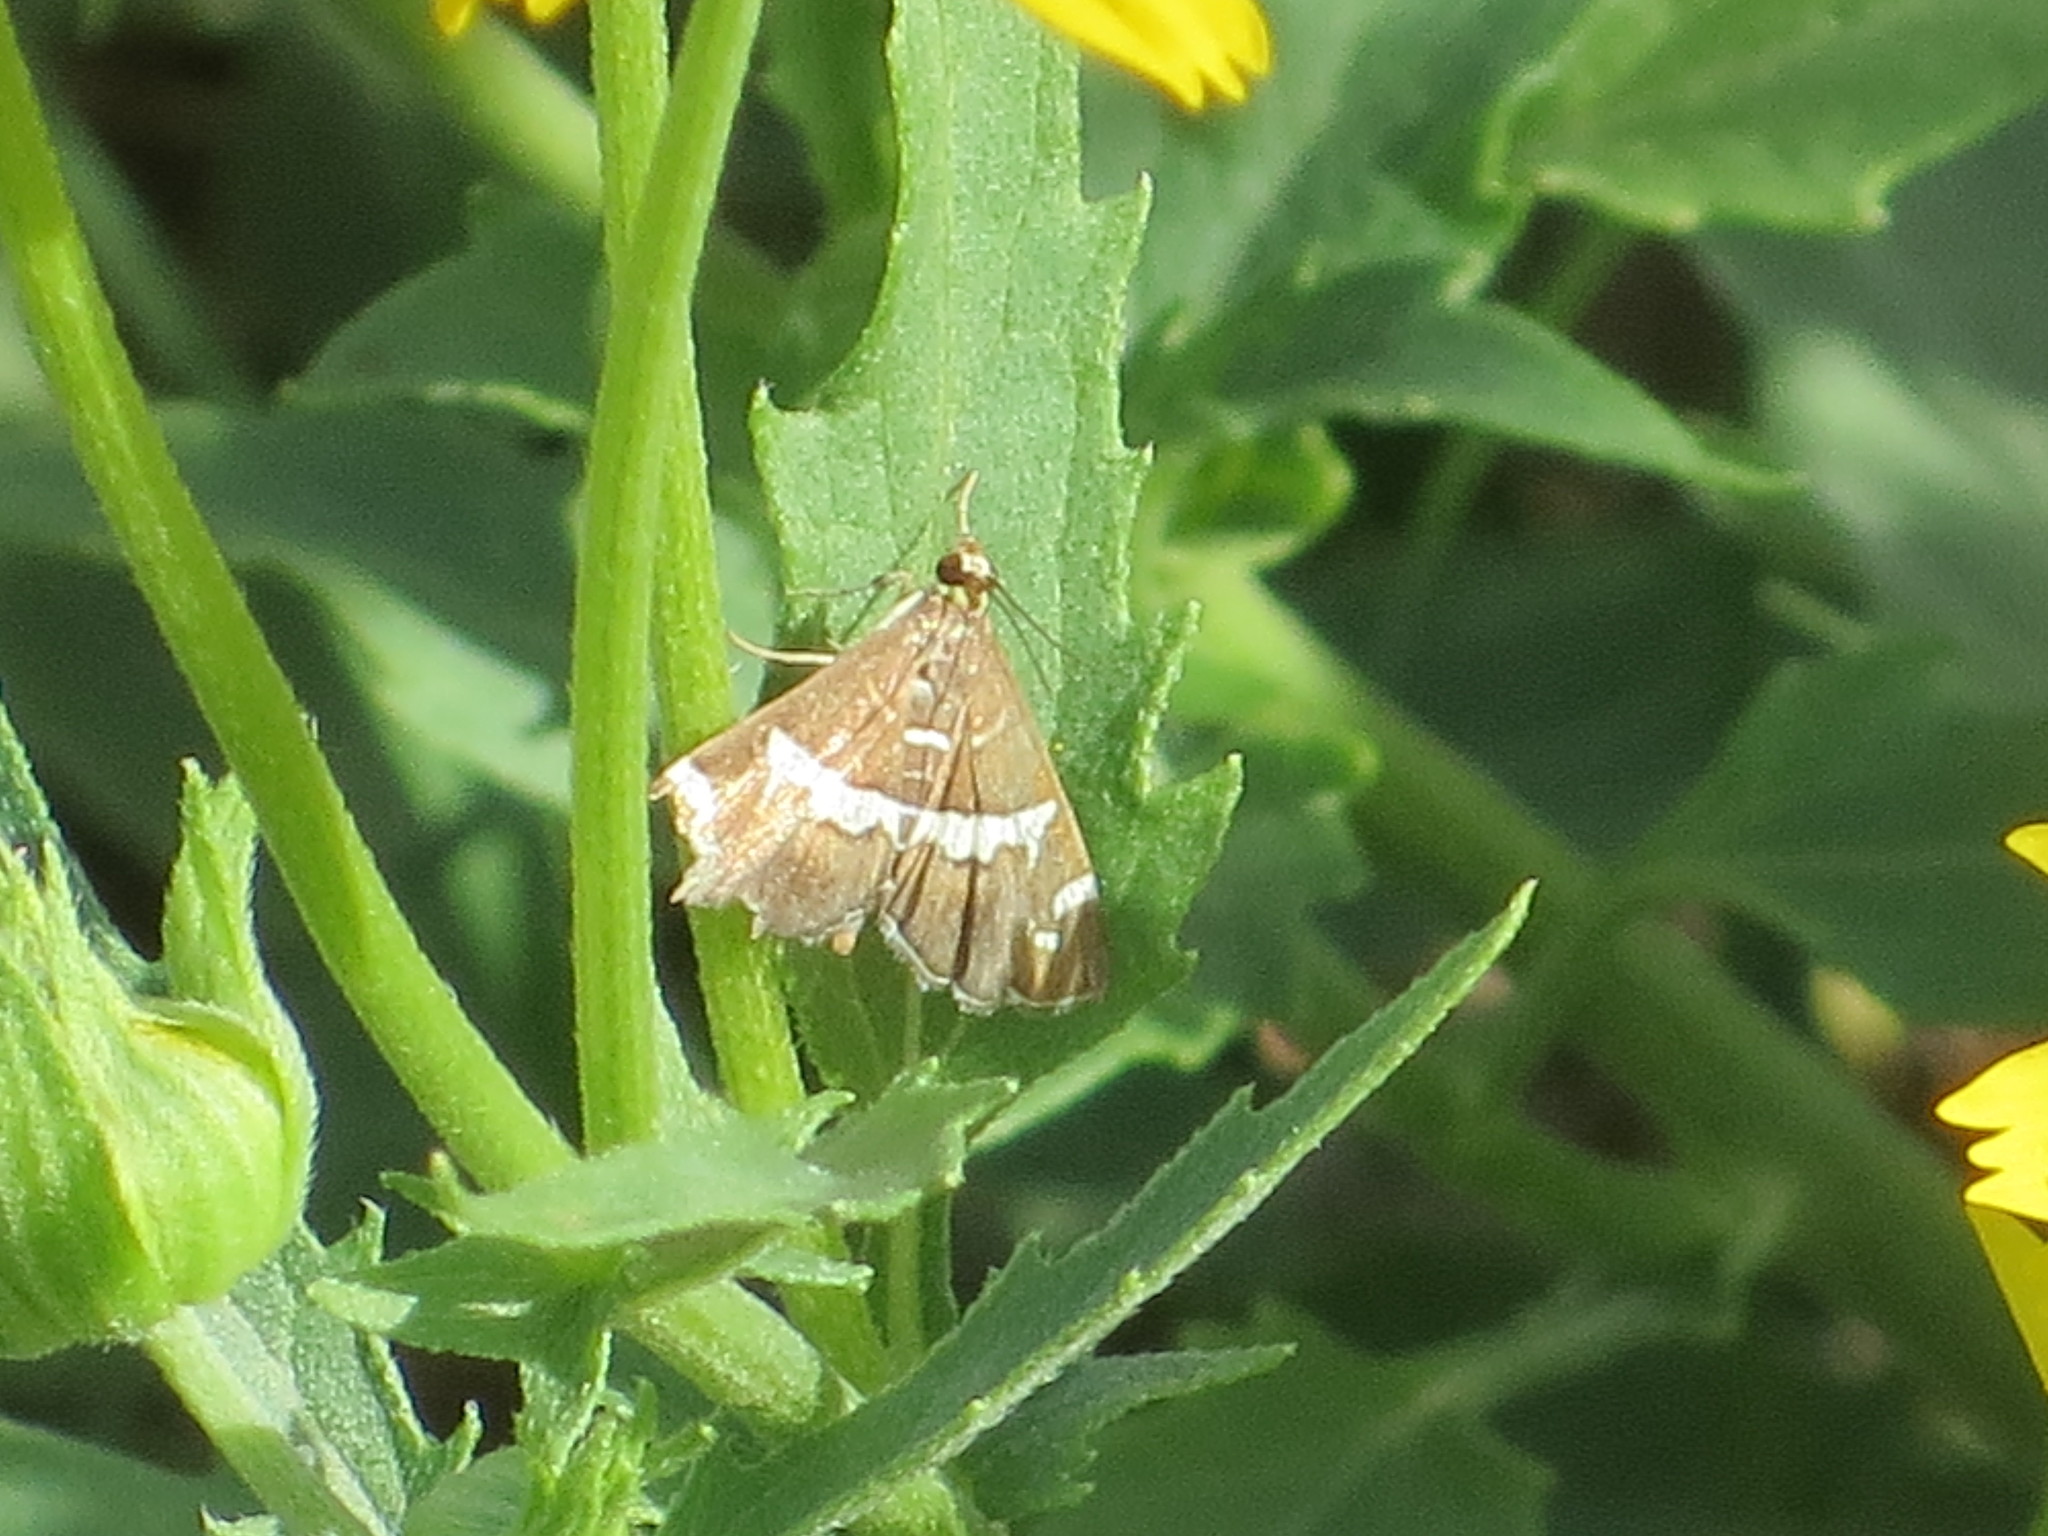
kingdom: Animalia
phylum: Arthropoda
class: Insecta
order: Lepidoptera
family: Crambidae
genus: Spoladea
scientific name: Spoladea recurvalis
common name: Beet webworm moth
